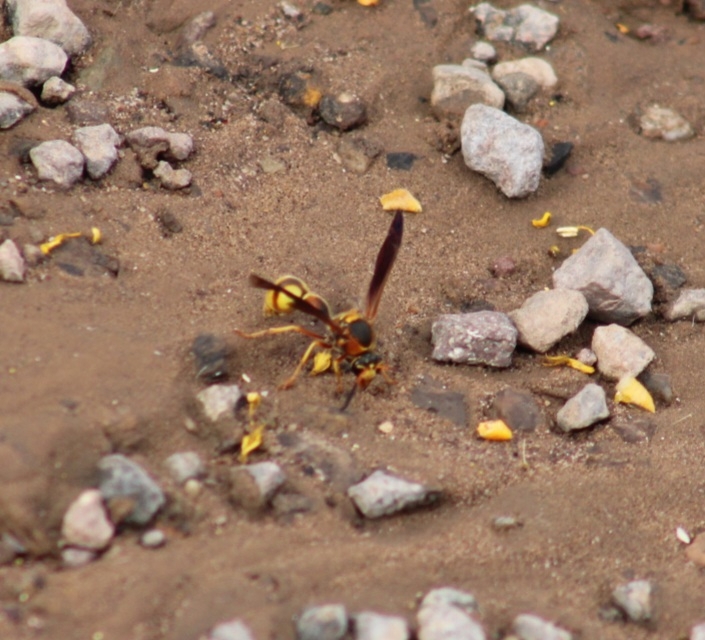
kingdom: Animalia
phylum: Arthropoda
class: Insecta
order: Hymenoptera
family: Vespidae
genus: Eumenes
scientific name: Eumenes bollii
